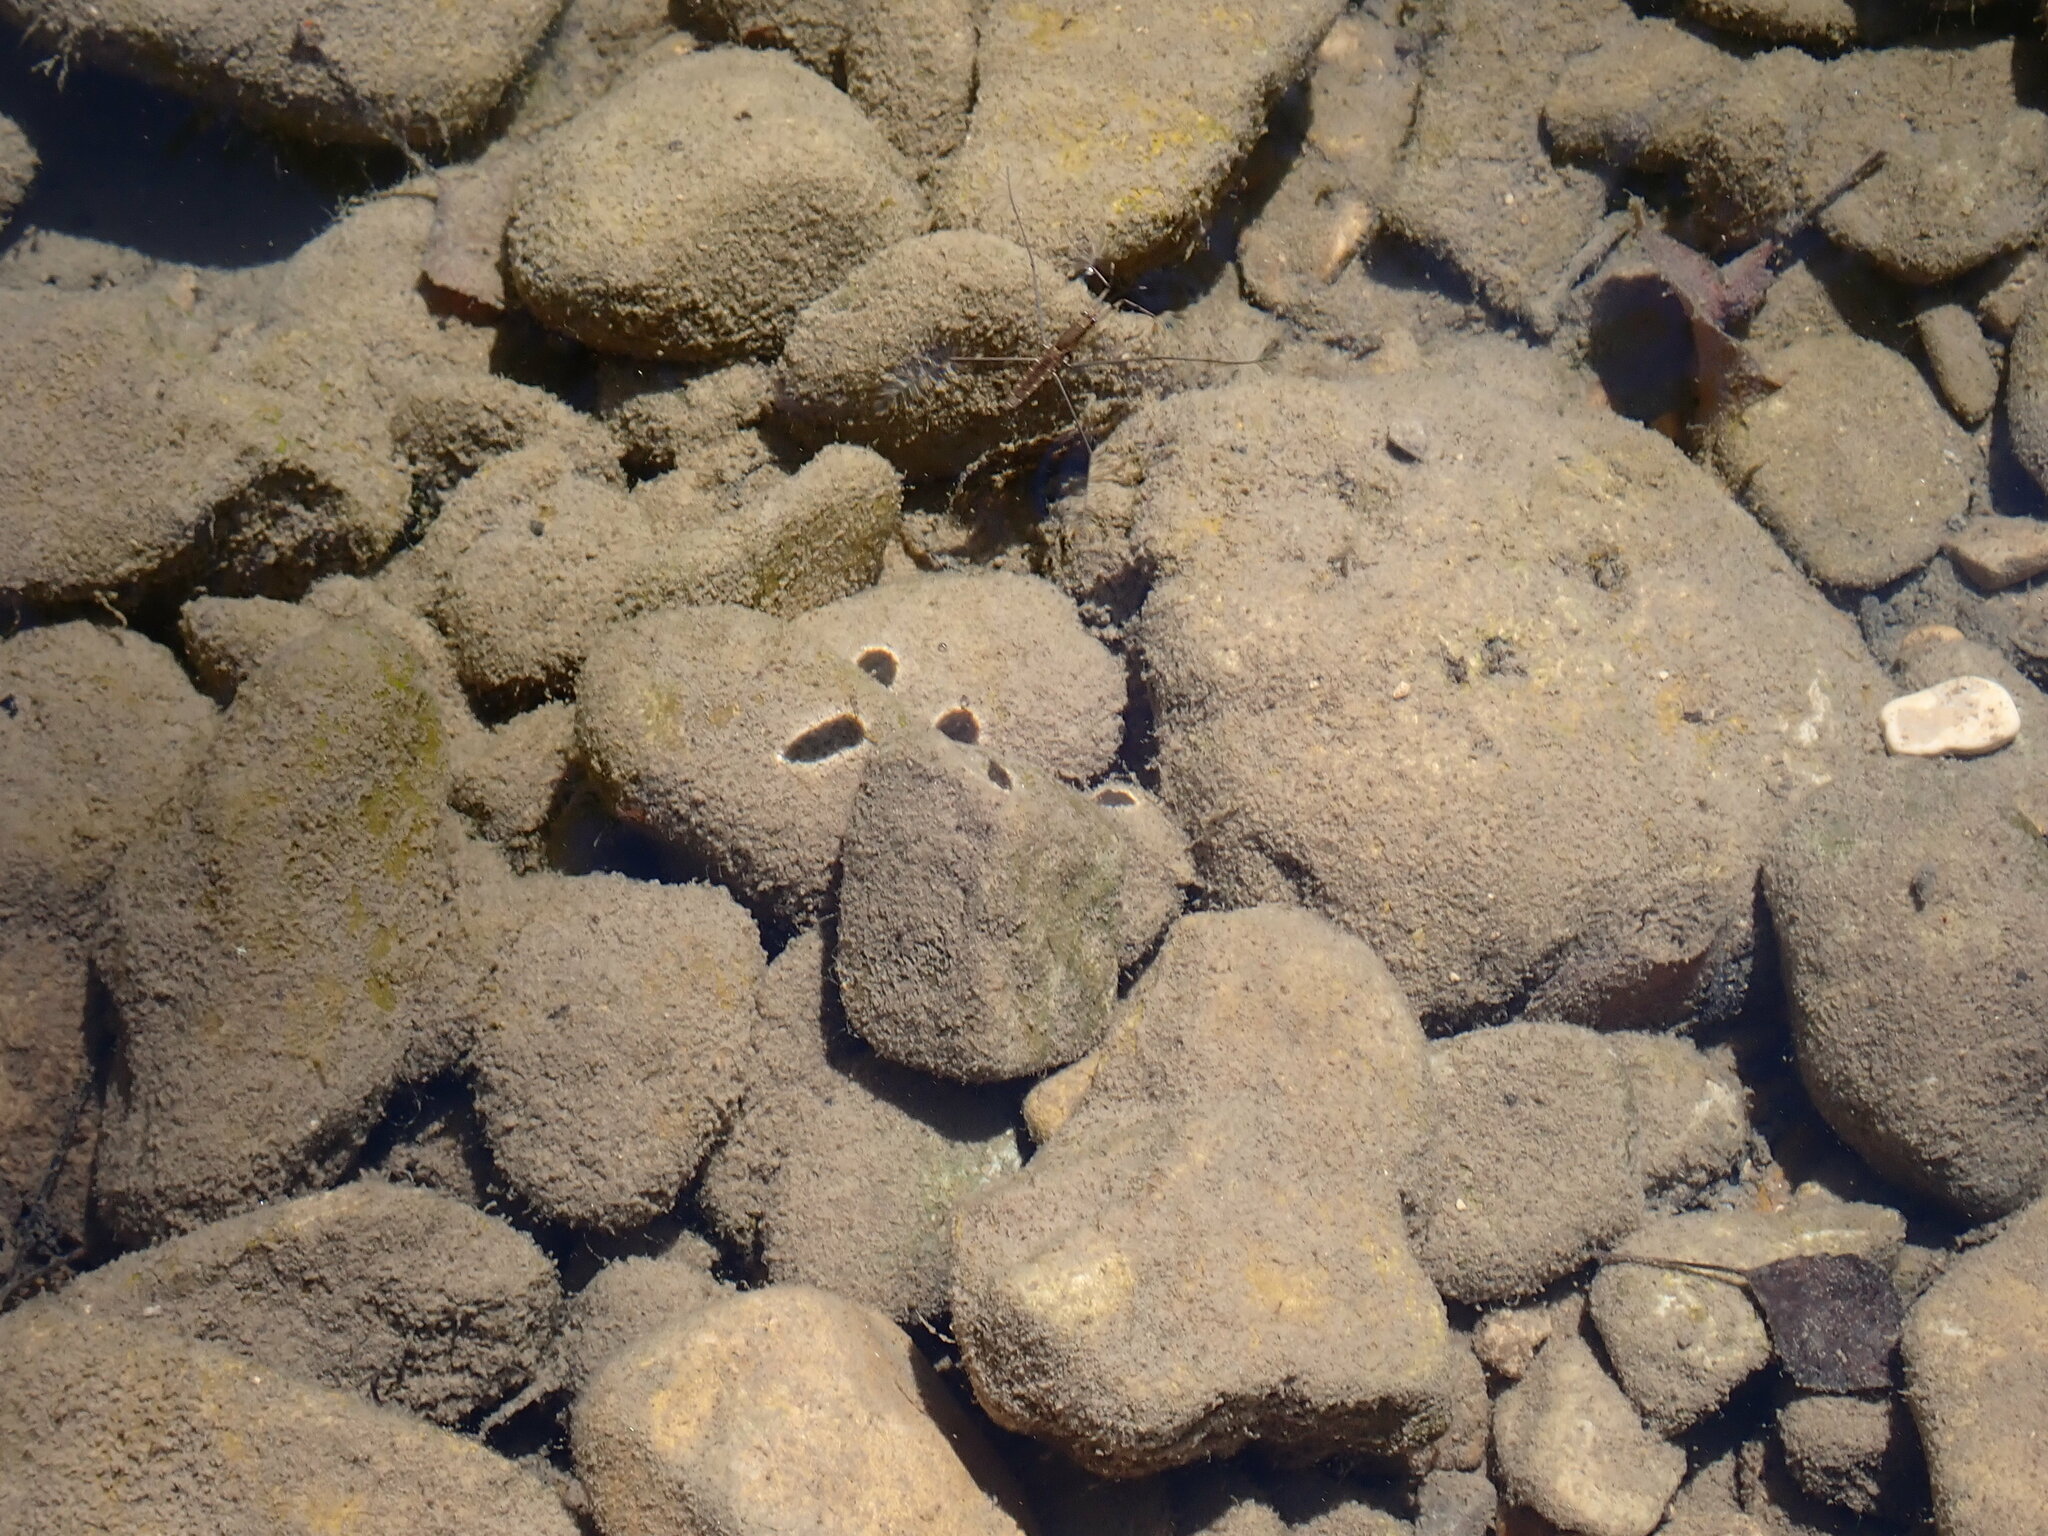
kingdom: Animalia
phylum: Arthropoda
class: Insecta
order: Hemiptera
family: Gerridae
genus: Aquarius
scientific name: Aquarius najas
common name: River skater
